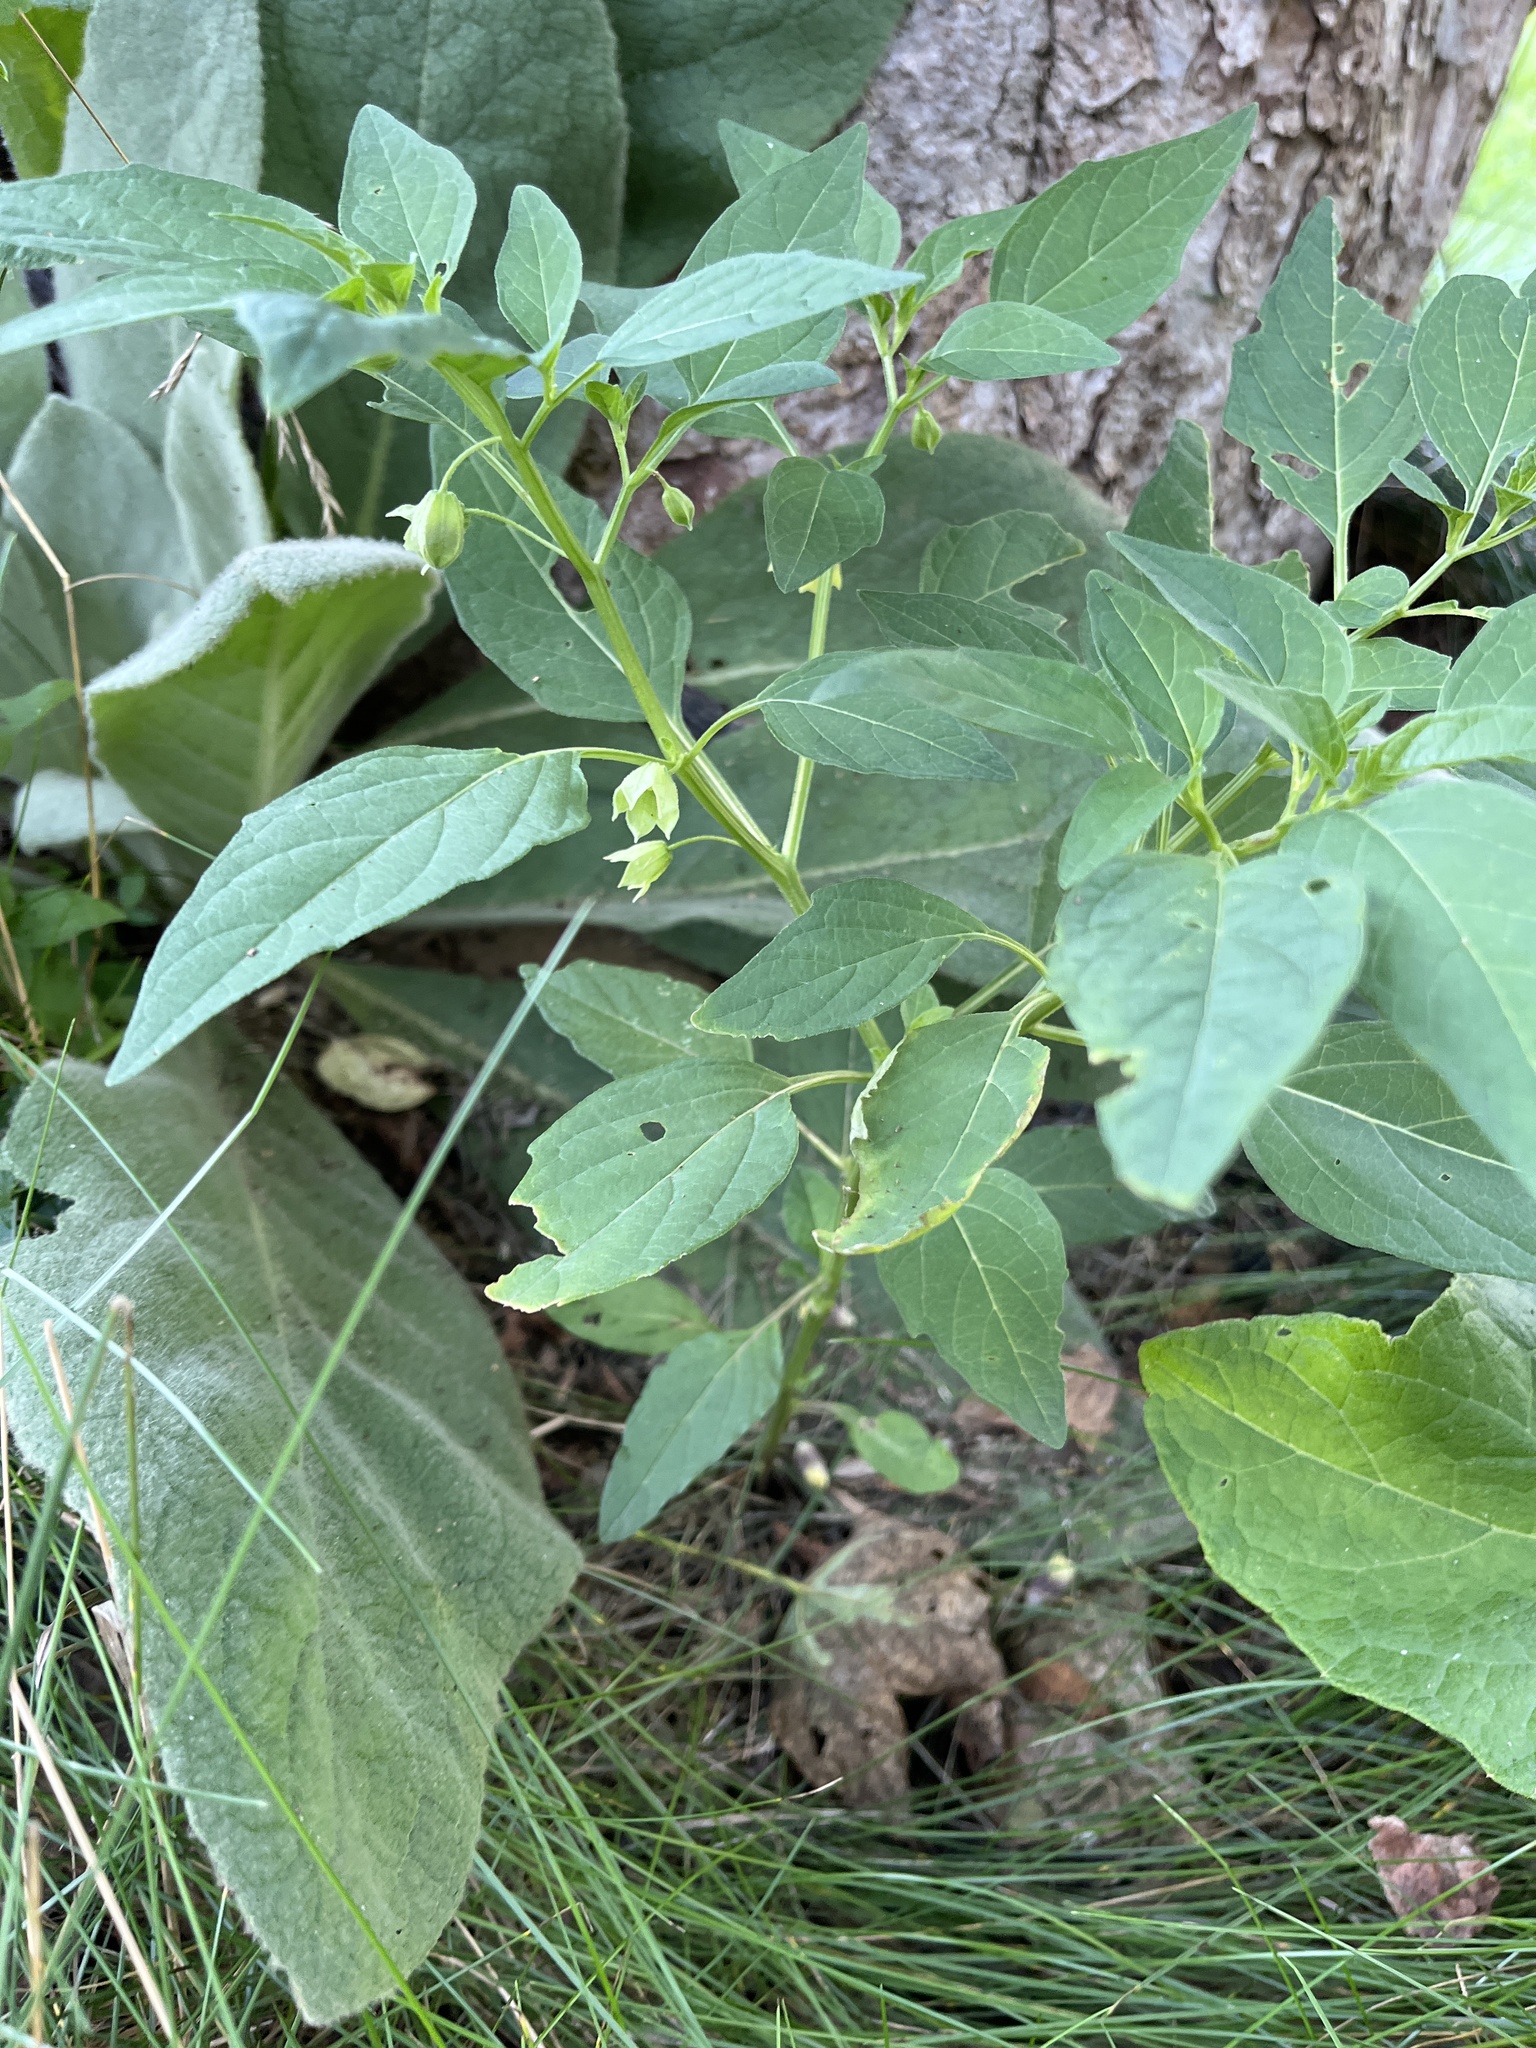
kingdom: Plantae
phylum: Tracheophyta
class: Magnoliopsida
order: Solanales
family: Solanaceae
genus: Physalis
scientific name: Physalis longifolia
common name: Common ground-cherry
